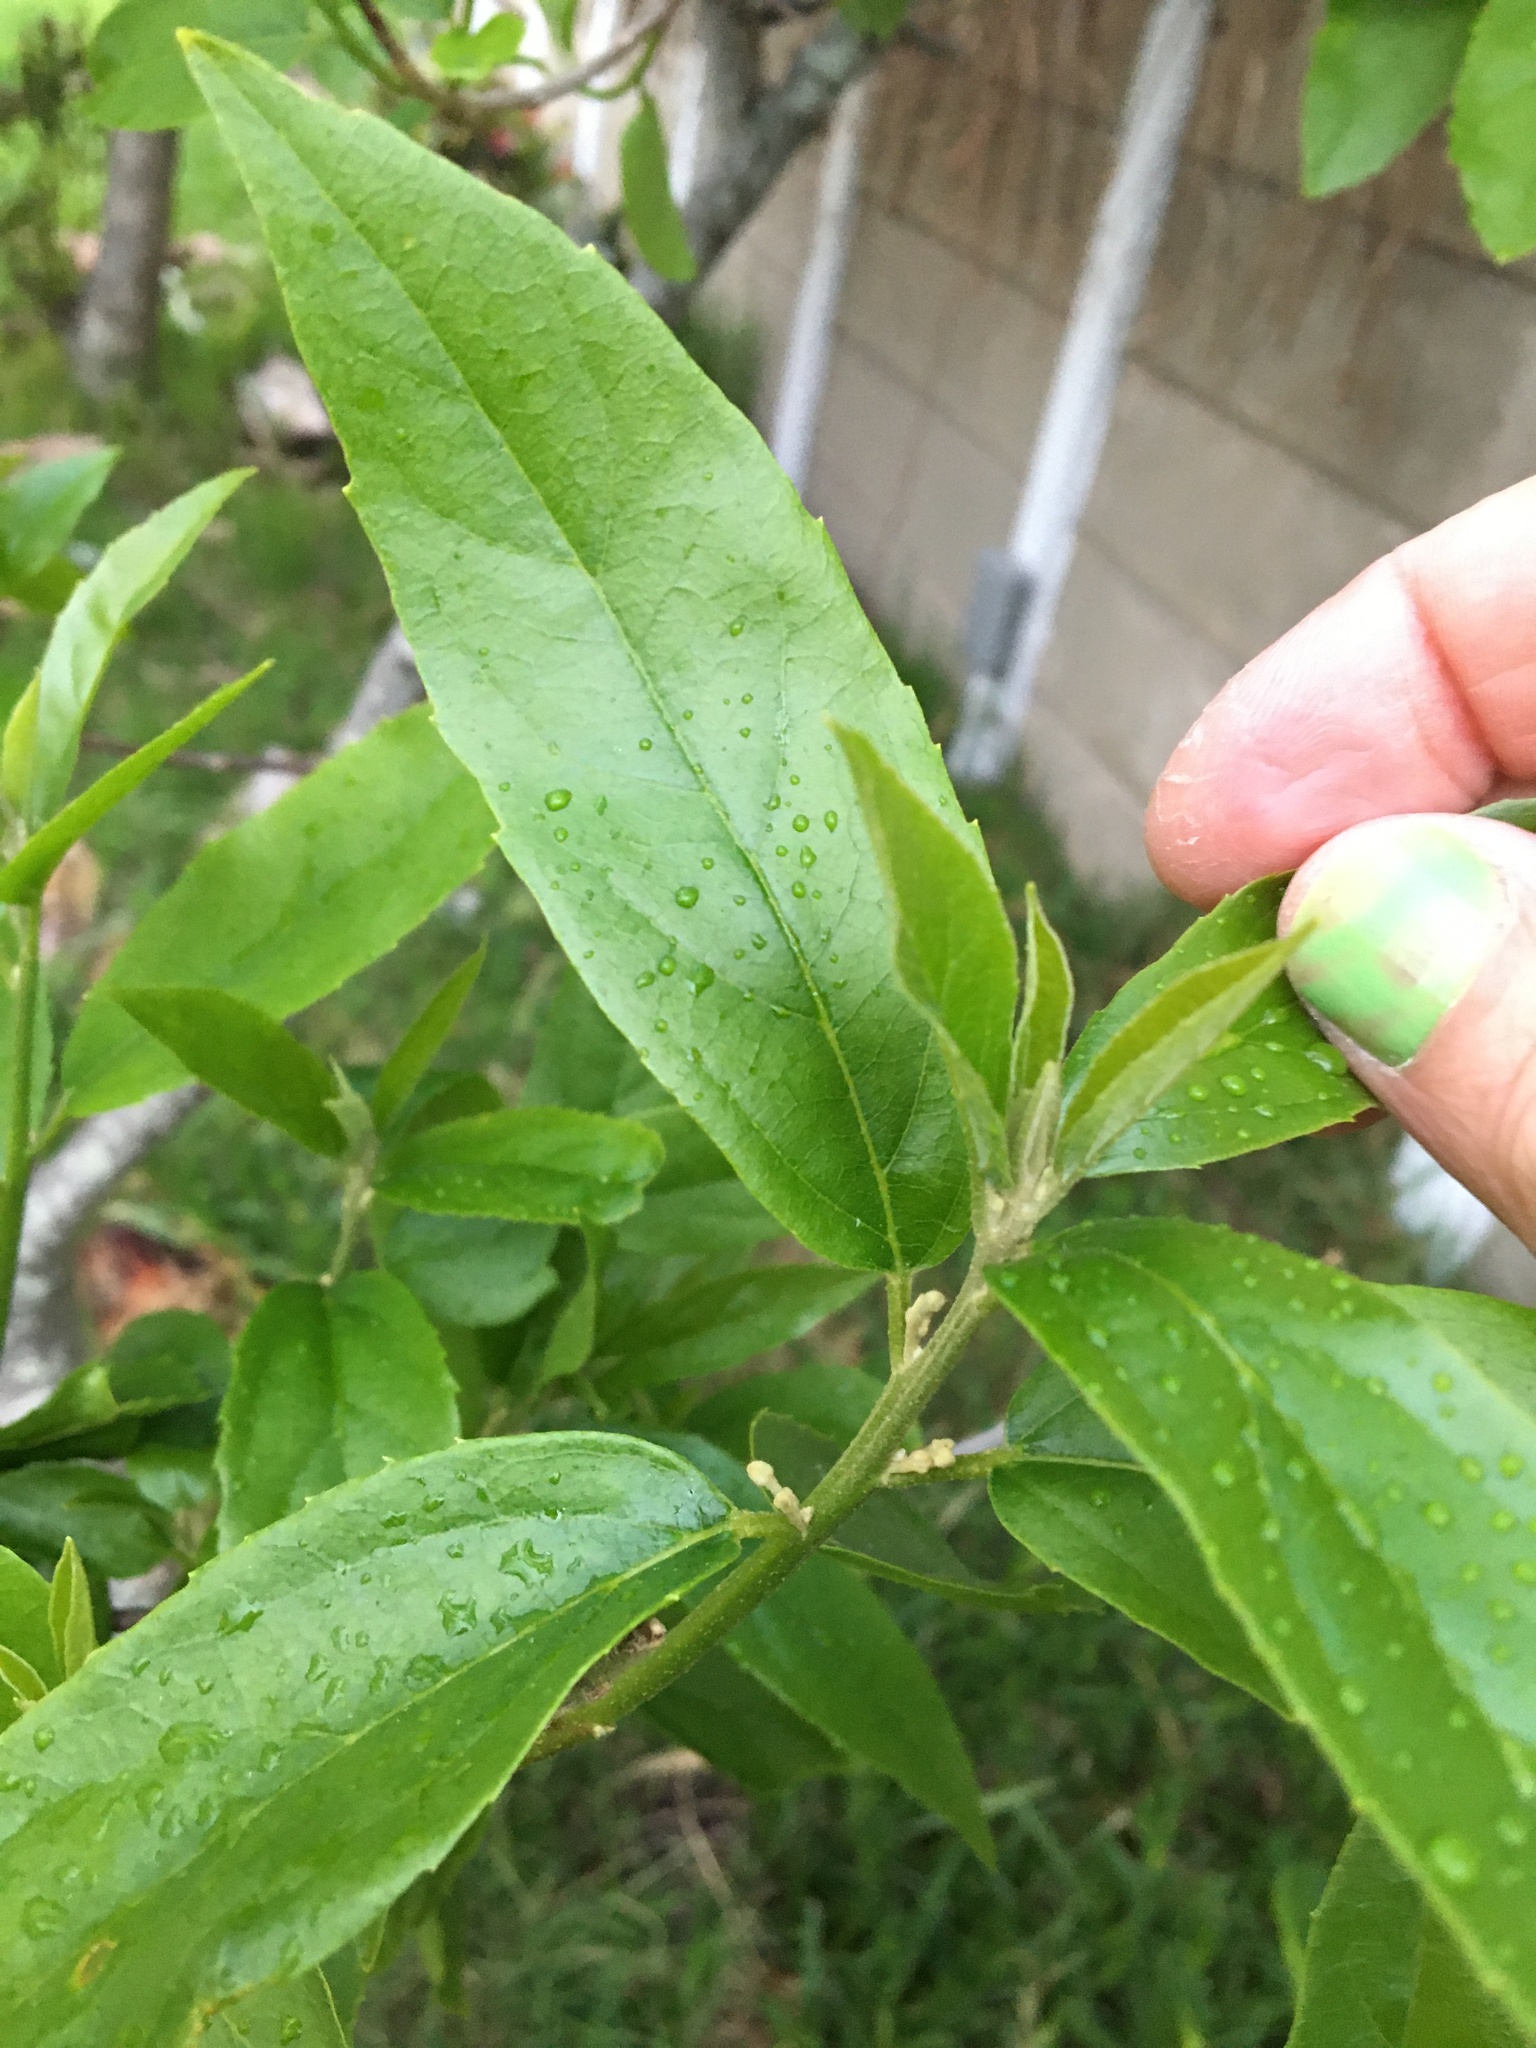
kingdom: Plantae
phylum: Tracheophyta
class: Magnoliopsida
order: Malpighiales
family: Achariaceae
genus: Kiggelaria
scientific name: Kiggelaria africana
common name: Wild peach
